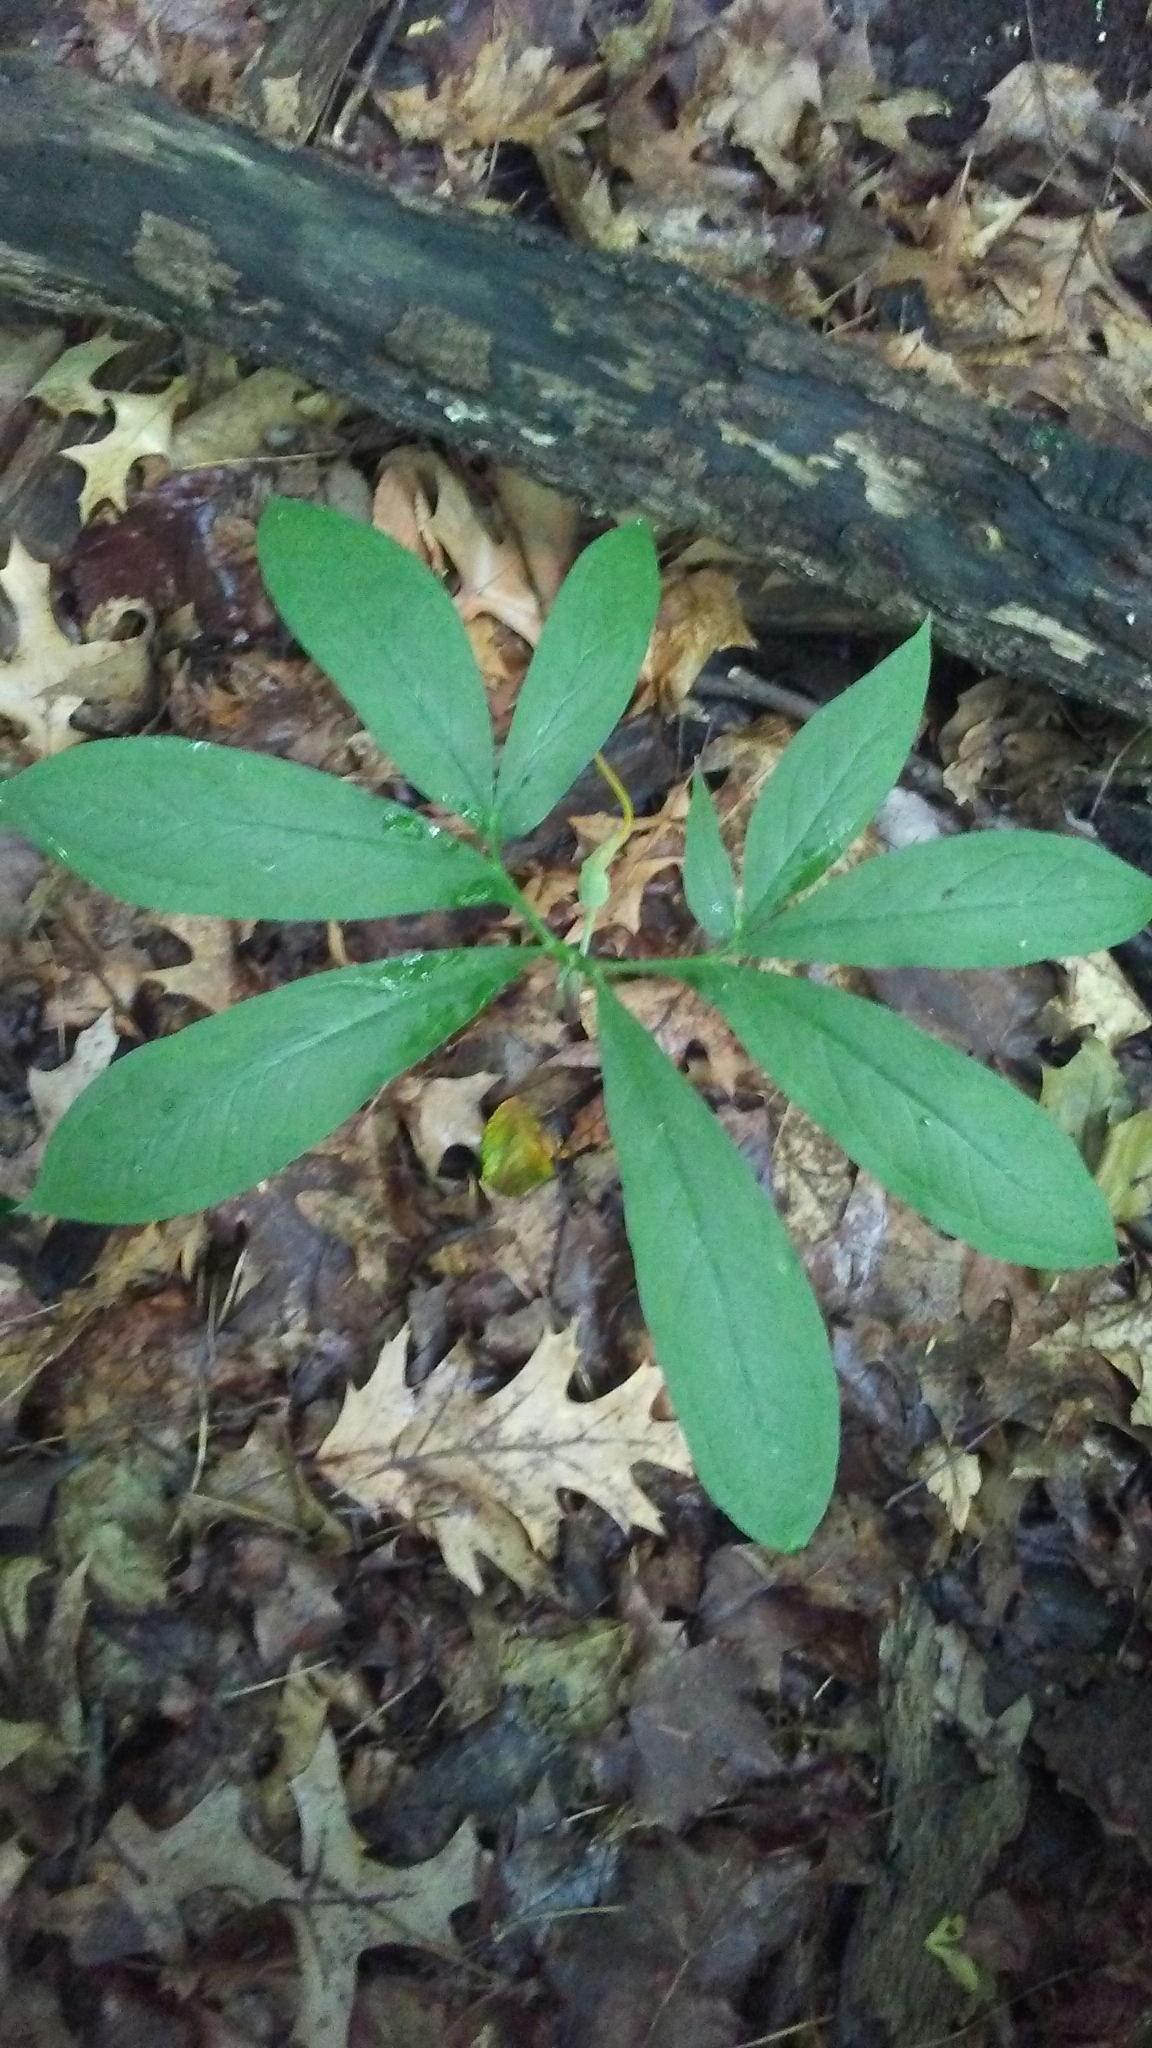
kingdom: Plantae
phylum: Tracheophyta
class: Liliopsida
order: Alismatales
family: Araceae
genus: Arisaema
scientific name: Arisaema dracontium
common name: Dragon-arum
